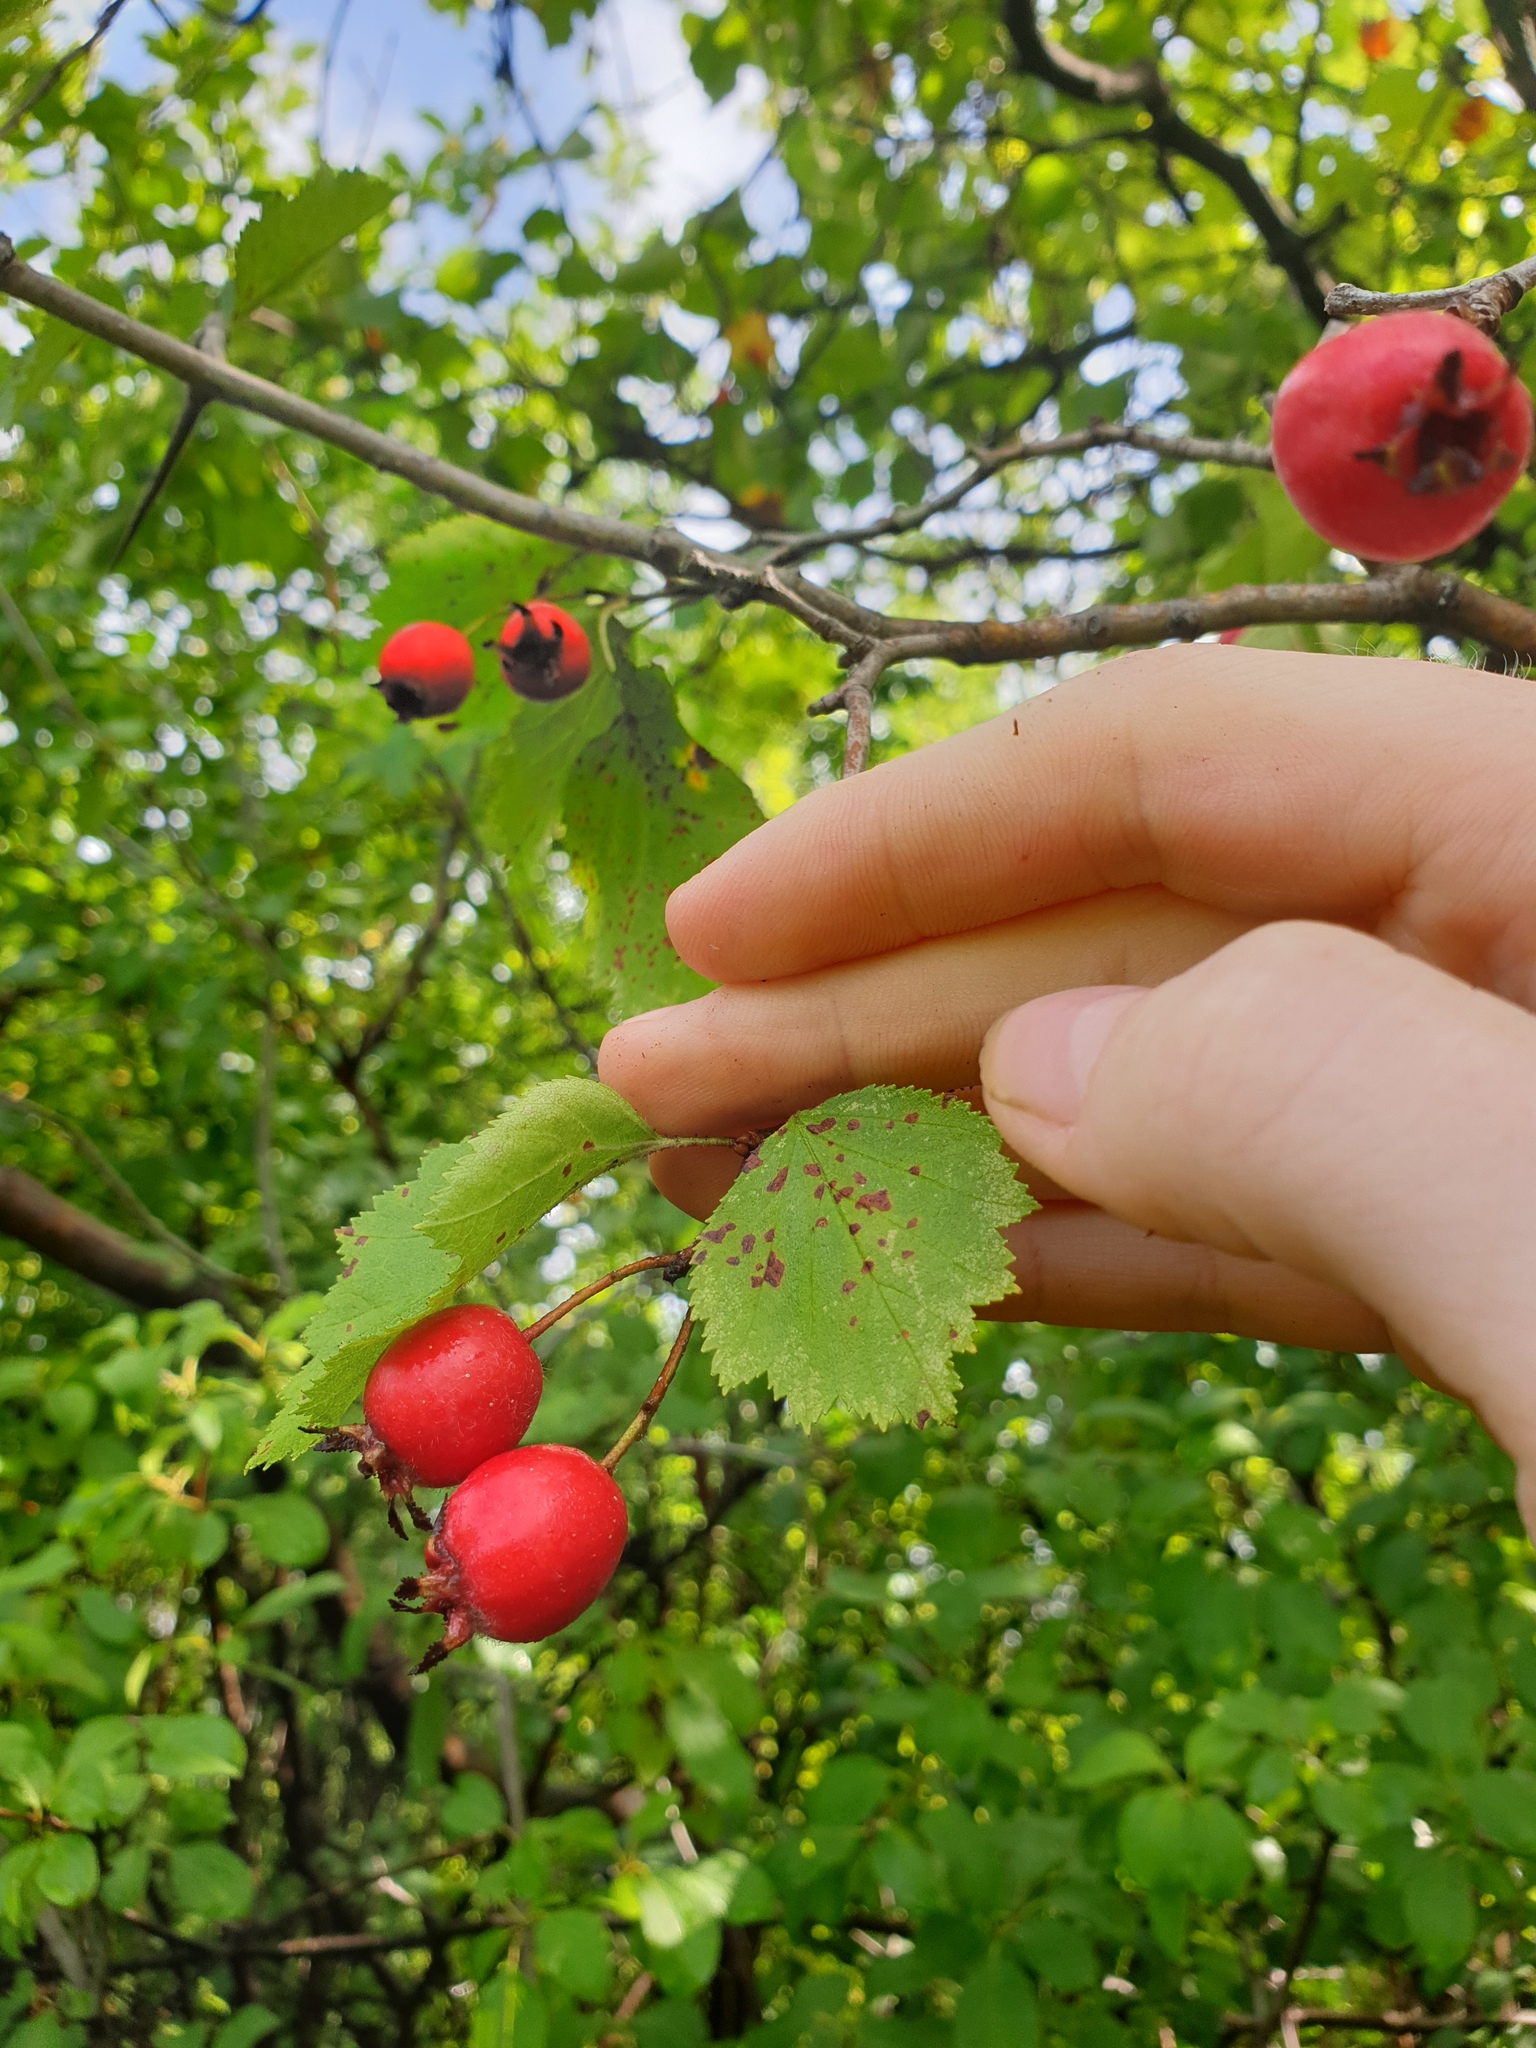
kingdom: Plantae
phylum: Tracheophyta
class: Magnoliopsida
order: Rosales
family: Rosaceae
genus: Crataegus
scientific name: Crataegus submollis
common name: Hairy cockspurthorn
